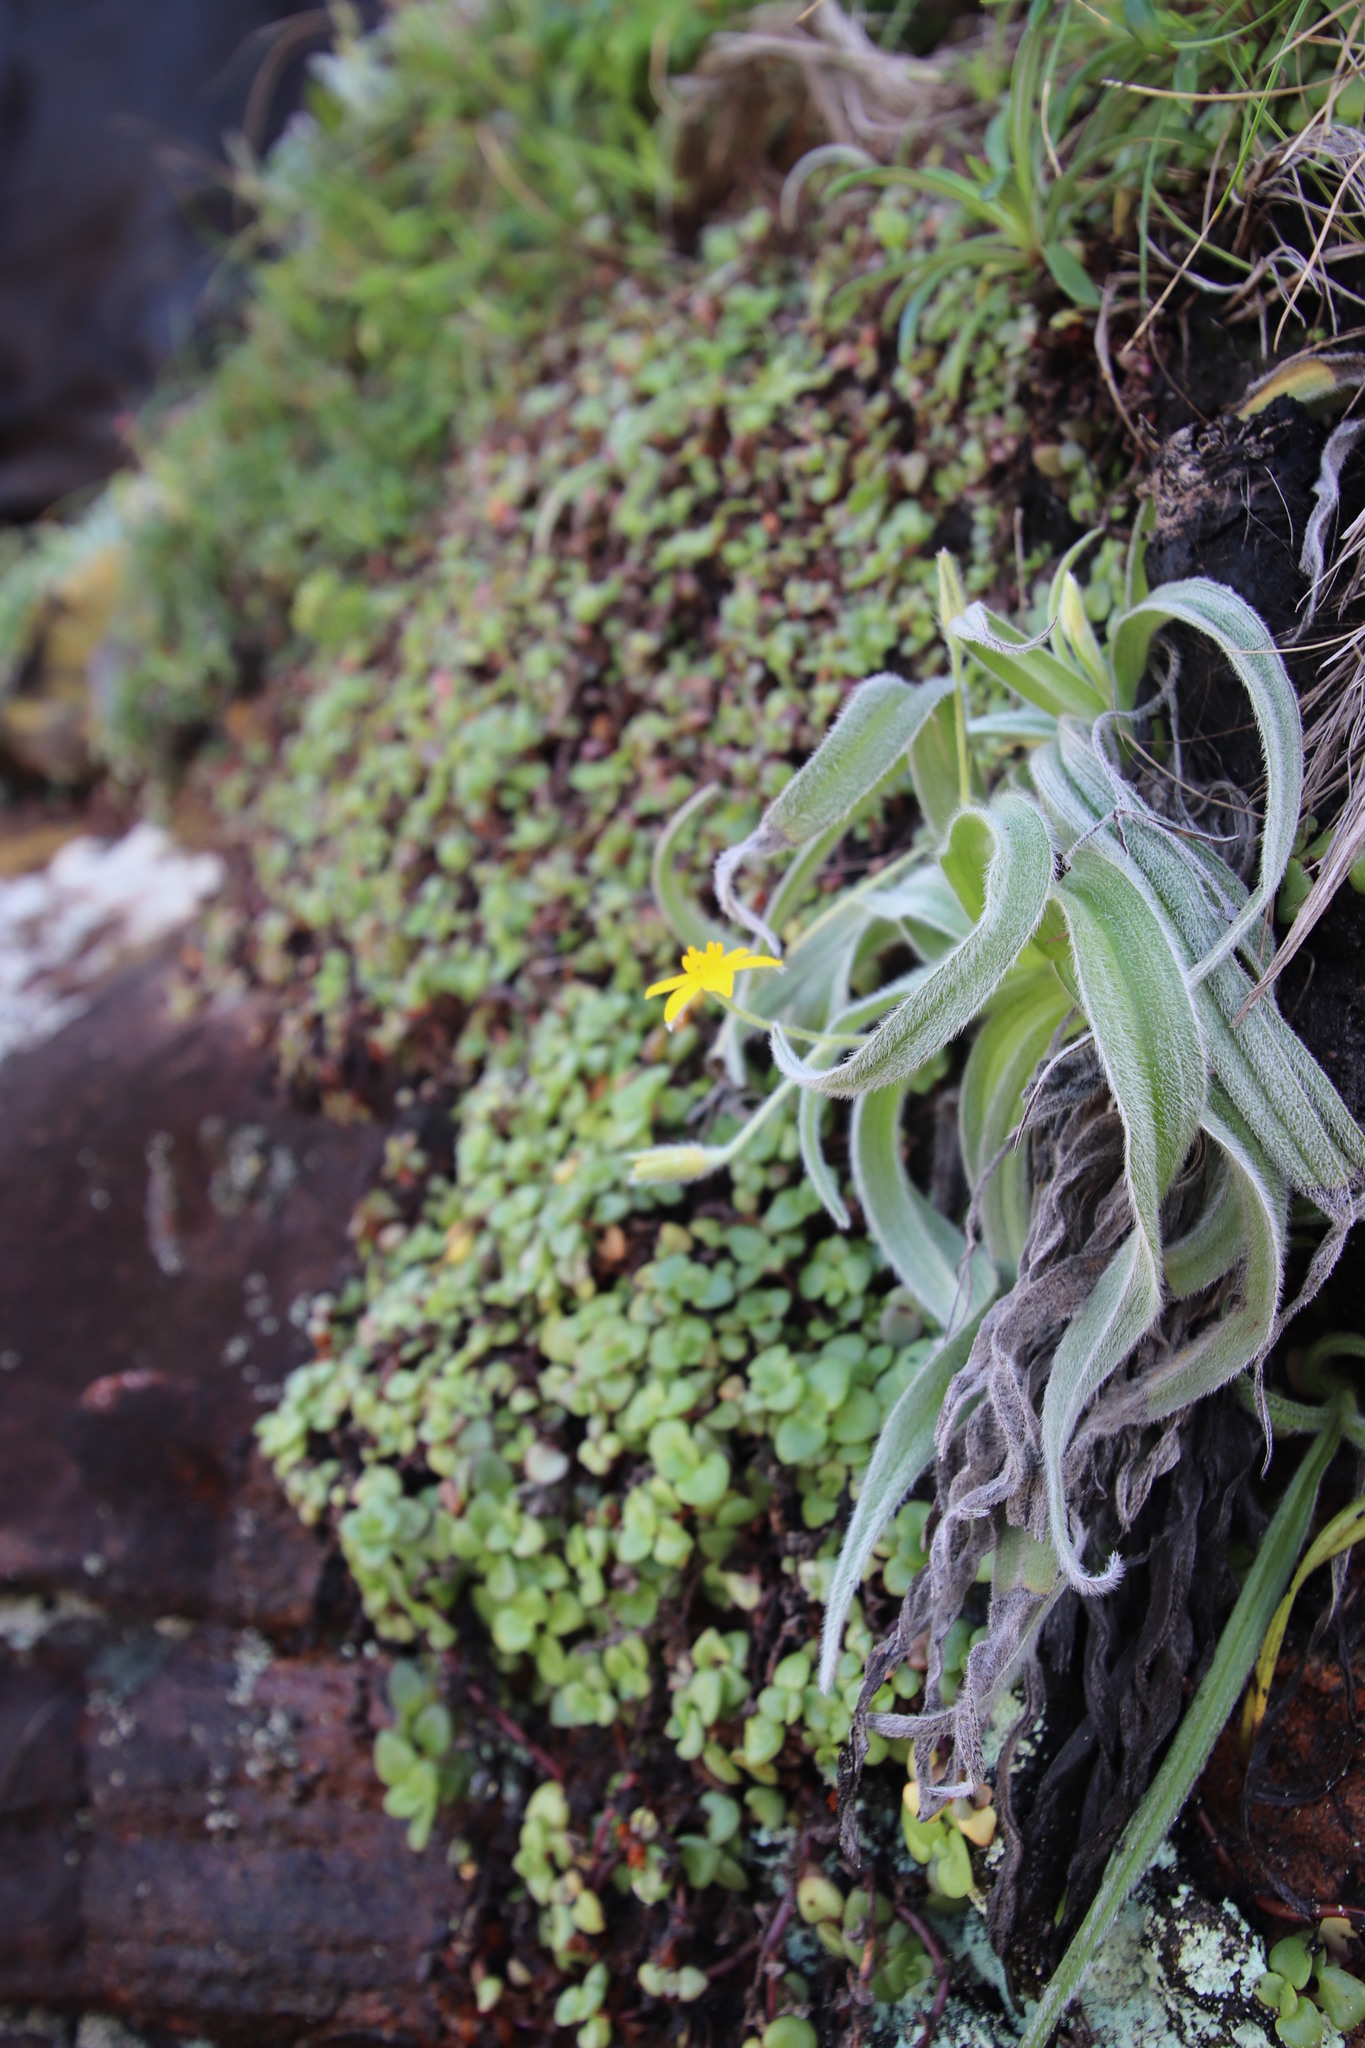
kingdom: Plantae
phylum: Tracheophyta
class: Liliopsida
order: Asparagales
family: Hypoxidaceae
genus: Hypoxis
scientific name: Hypoxis sobolifera
